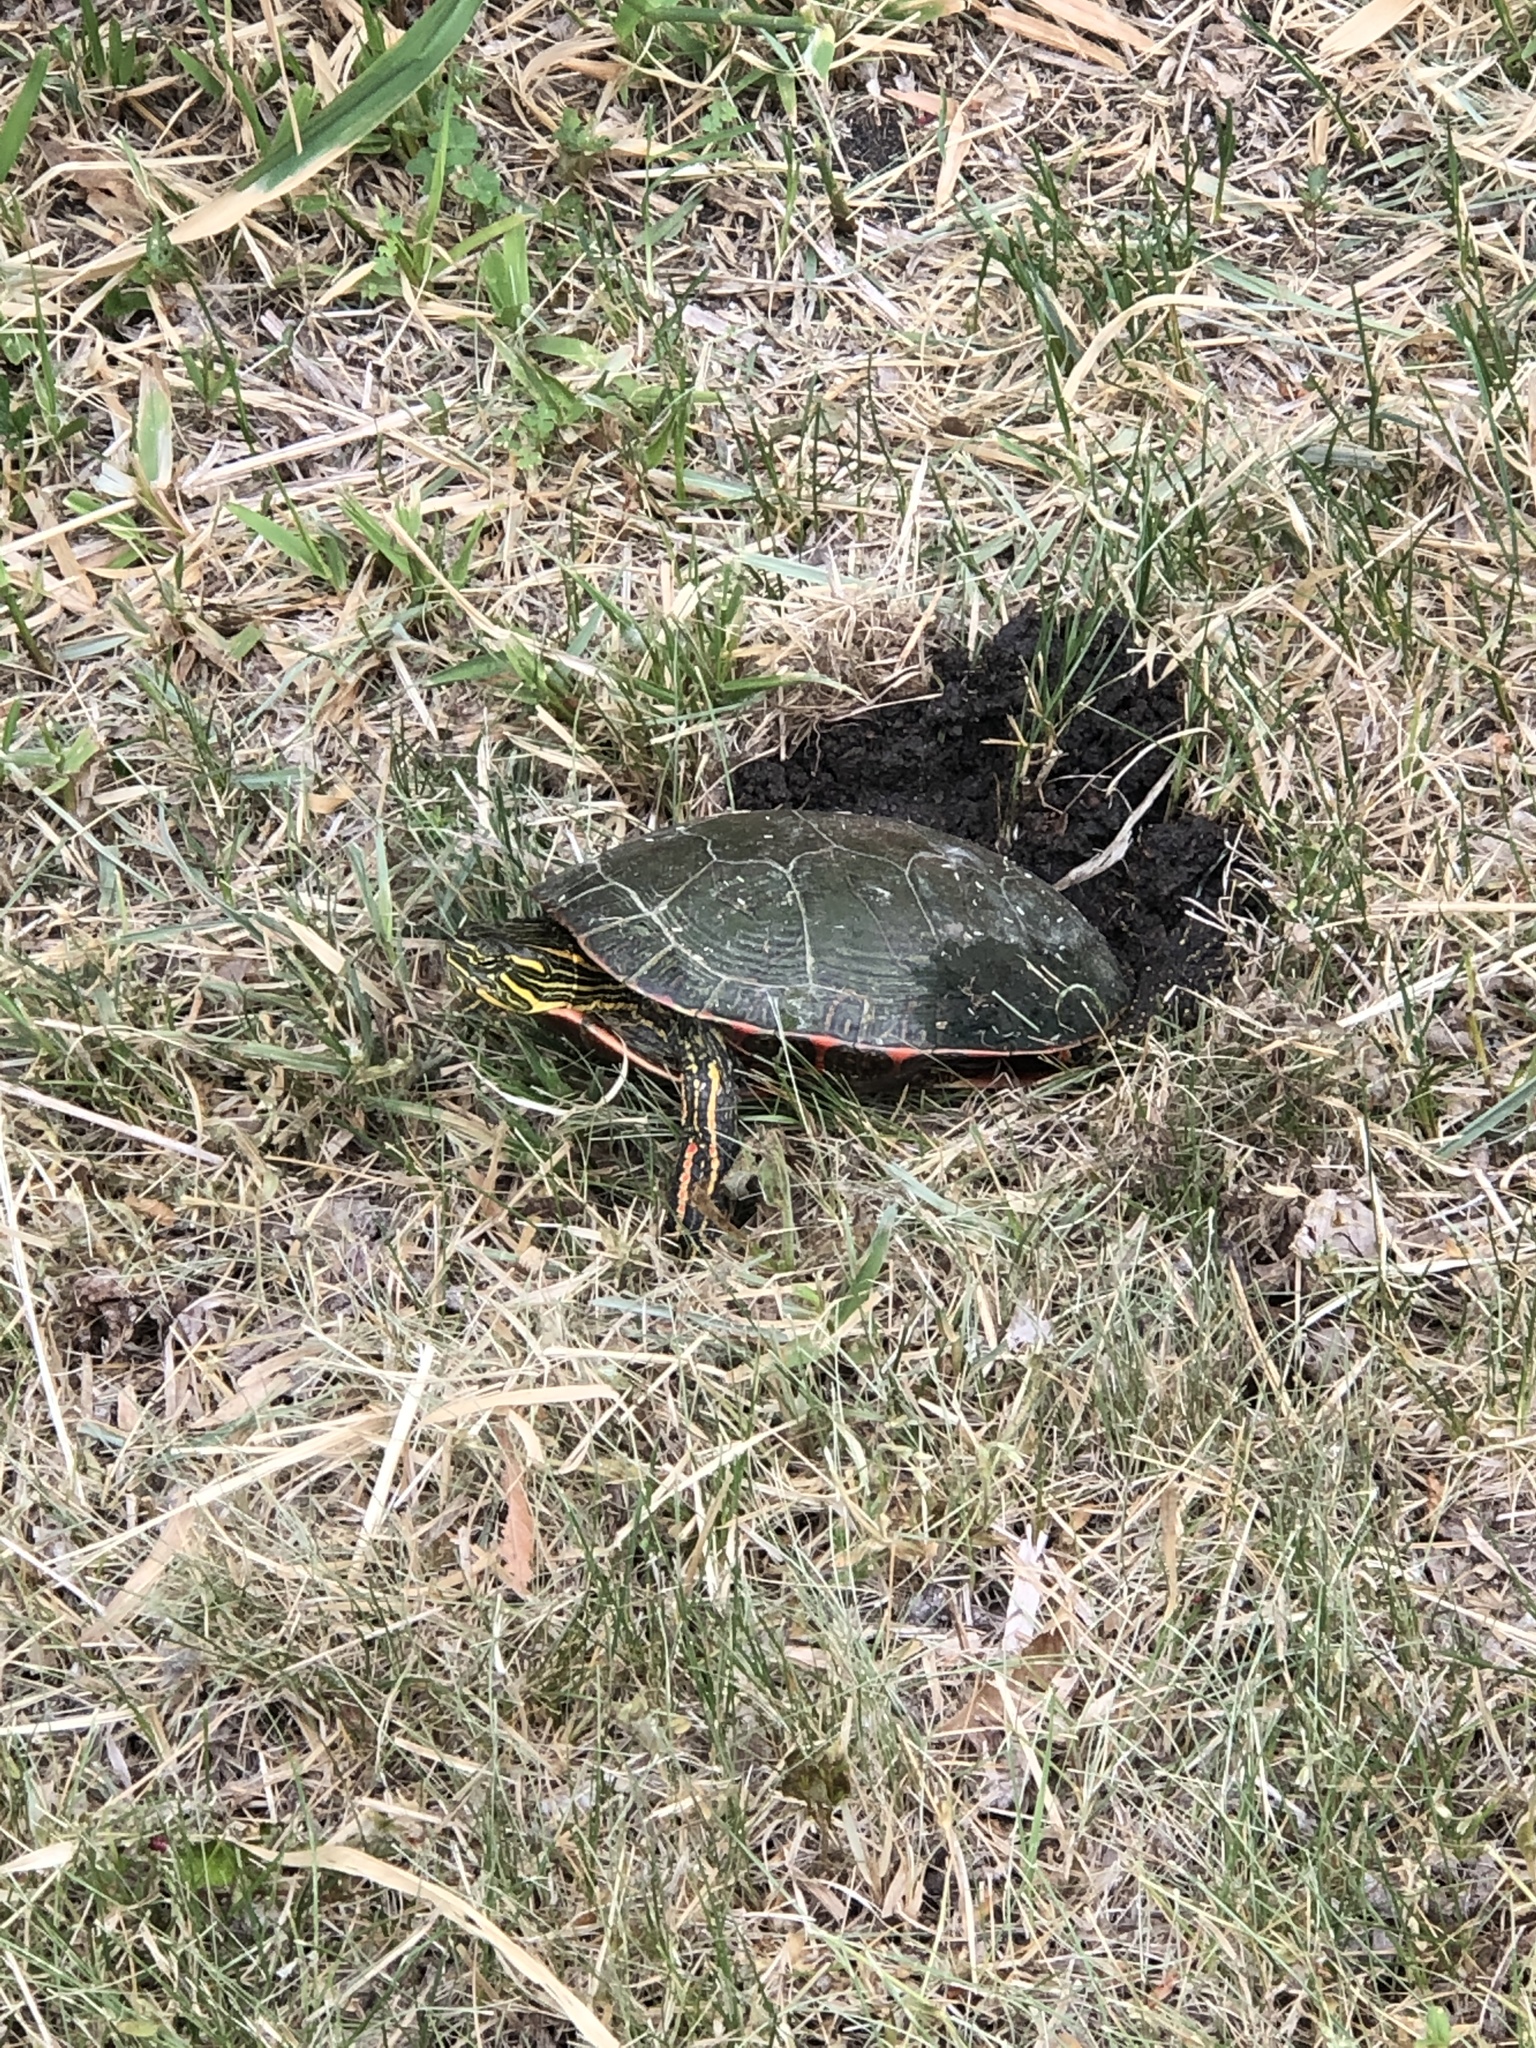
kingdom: Animalia
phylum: Chordata
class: Testudines
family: Emydidae
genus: Chrysemys
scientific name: Chrysemys picta
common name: Painted turtle
